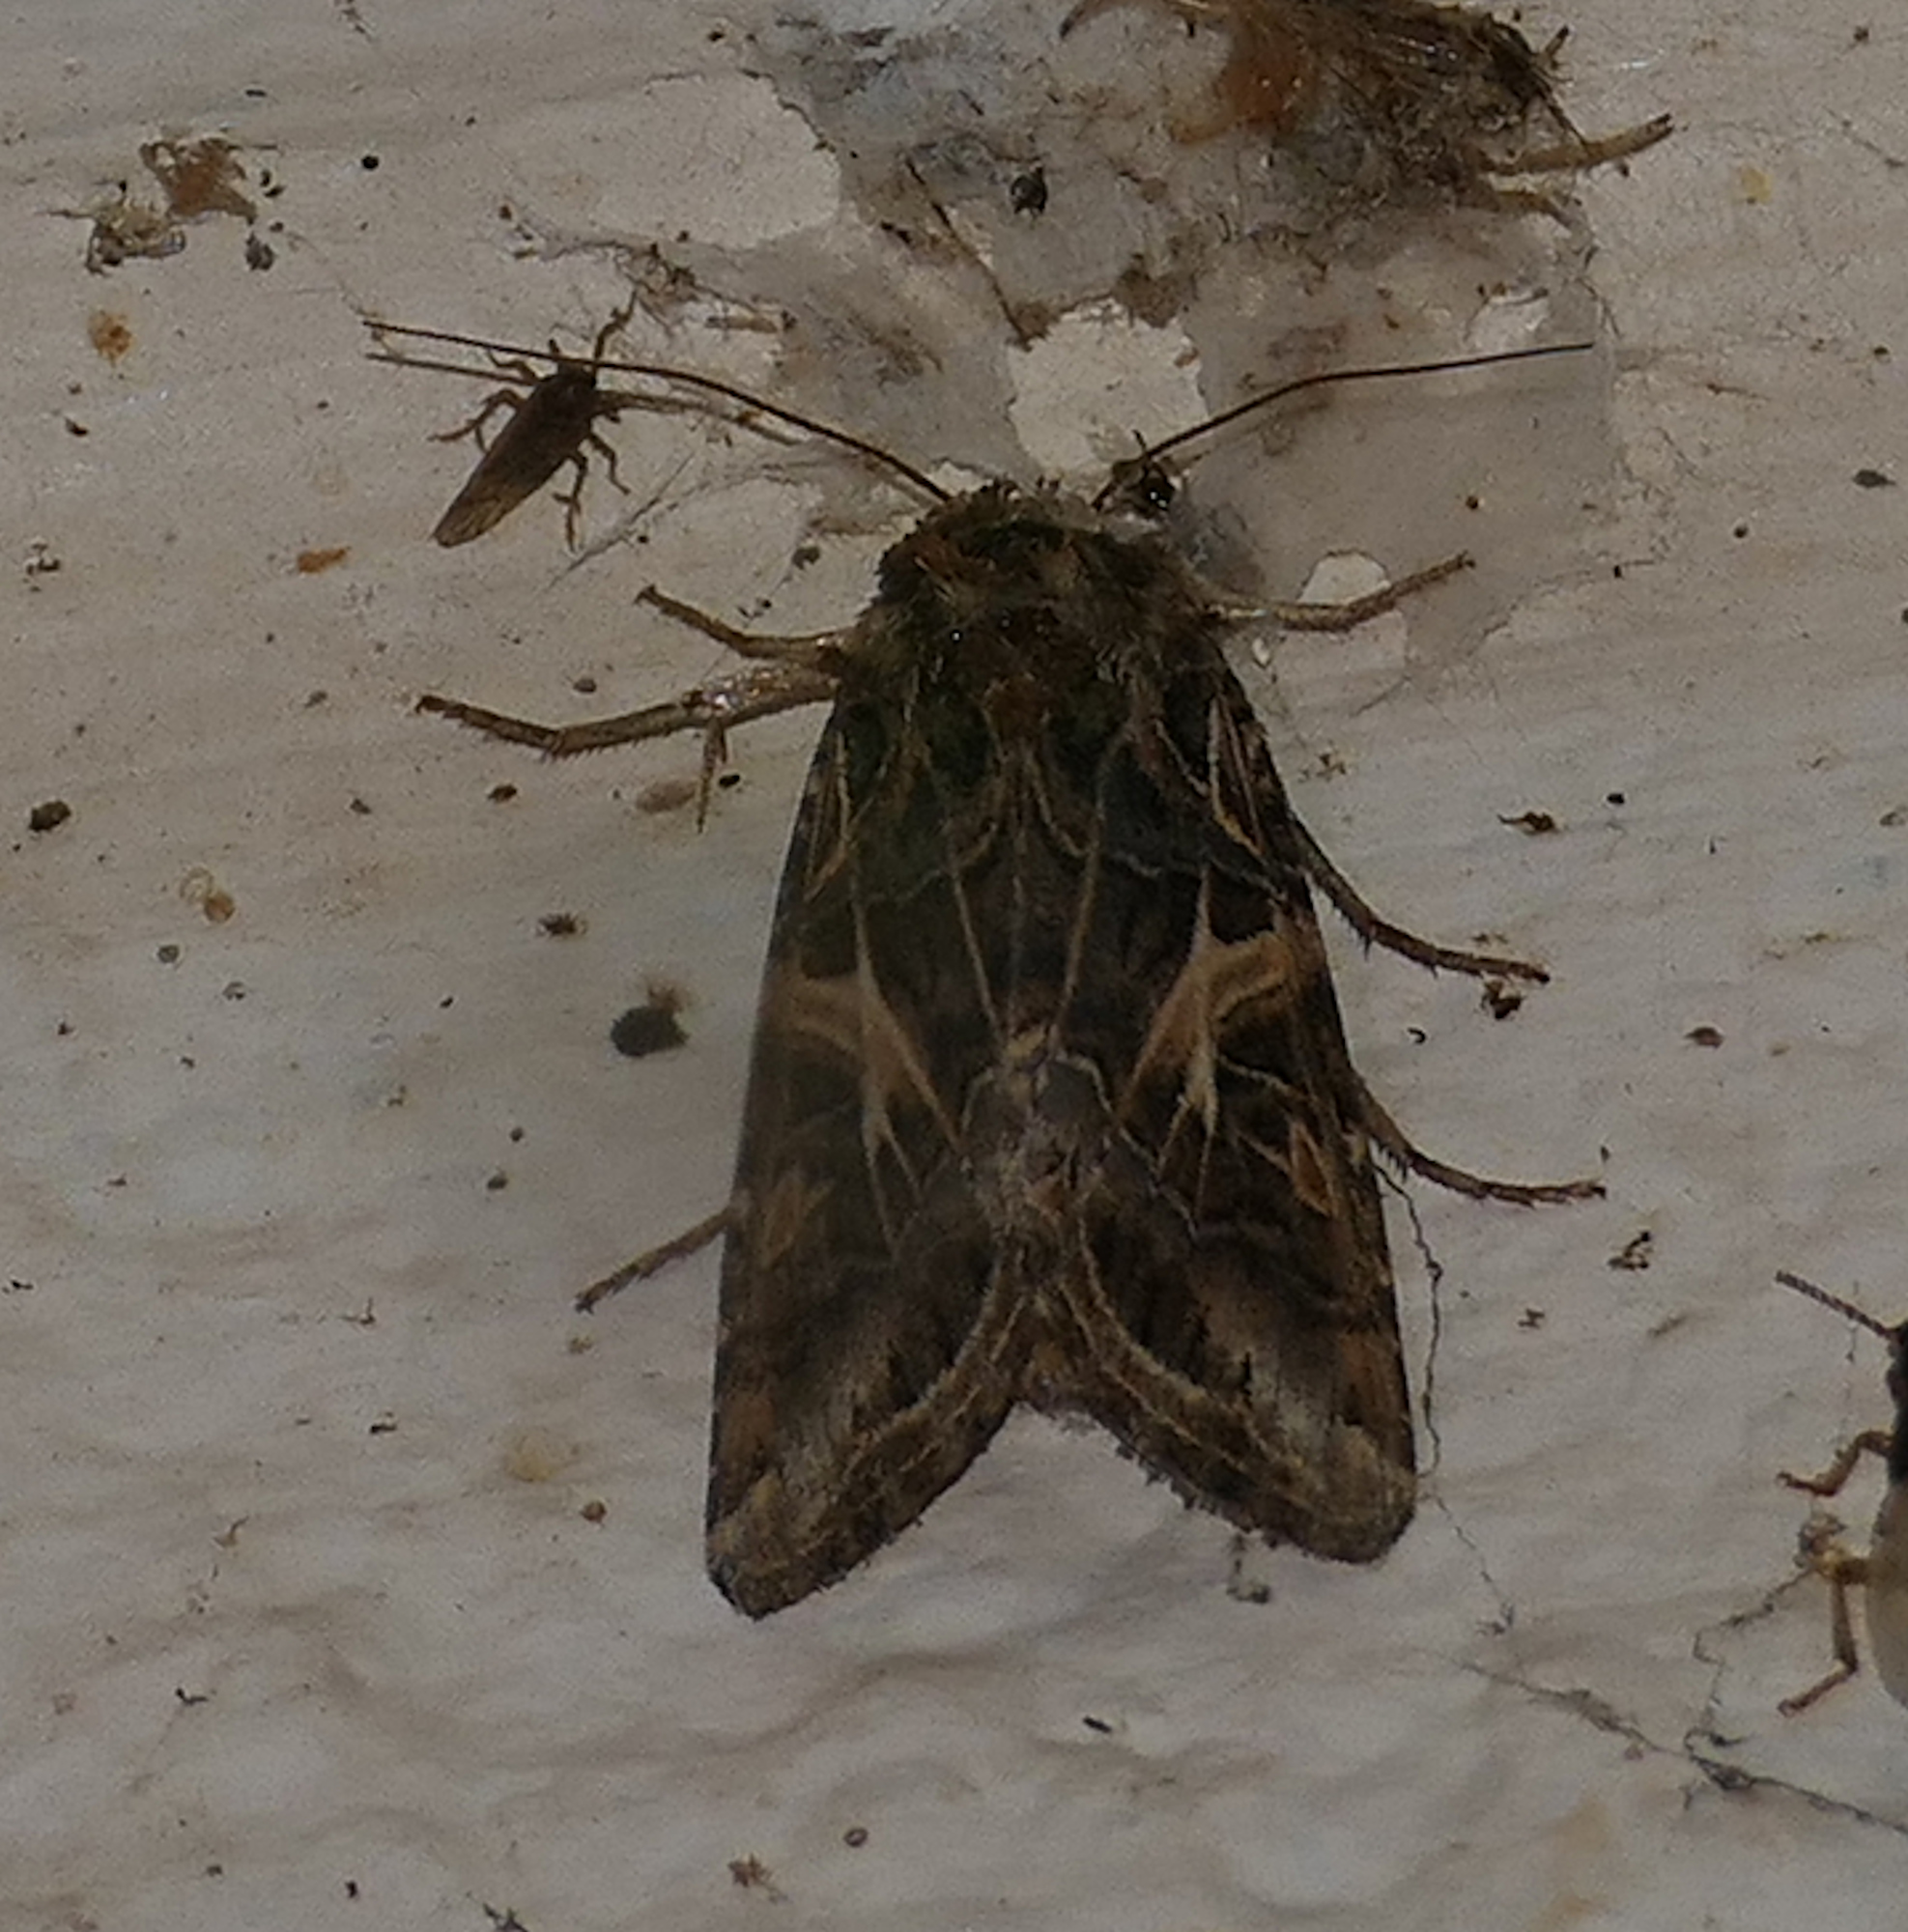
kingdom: Animalia
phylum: Arthropoda
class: Insecta
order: Lepidoptera
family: Noctuidae
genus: Spodoptera
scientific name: Spodoptera ornithogalli
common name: Yellow-striped armyworm
